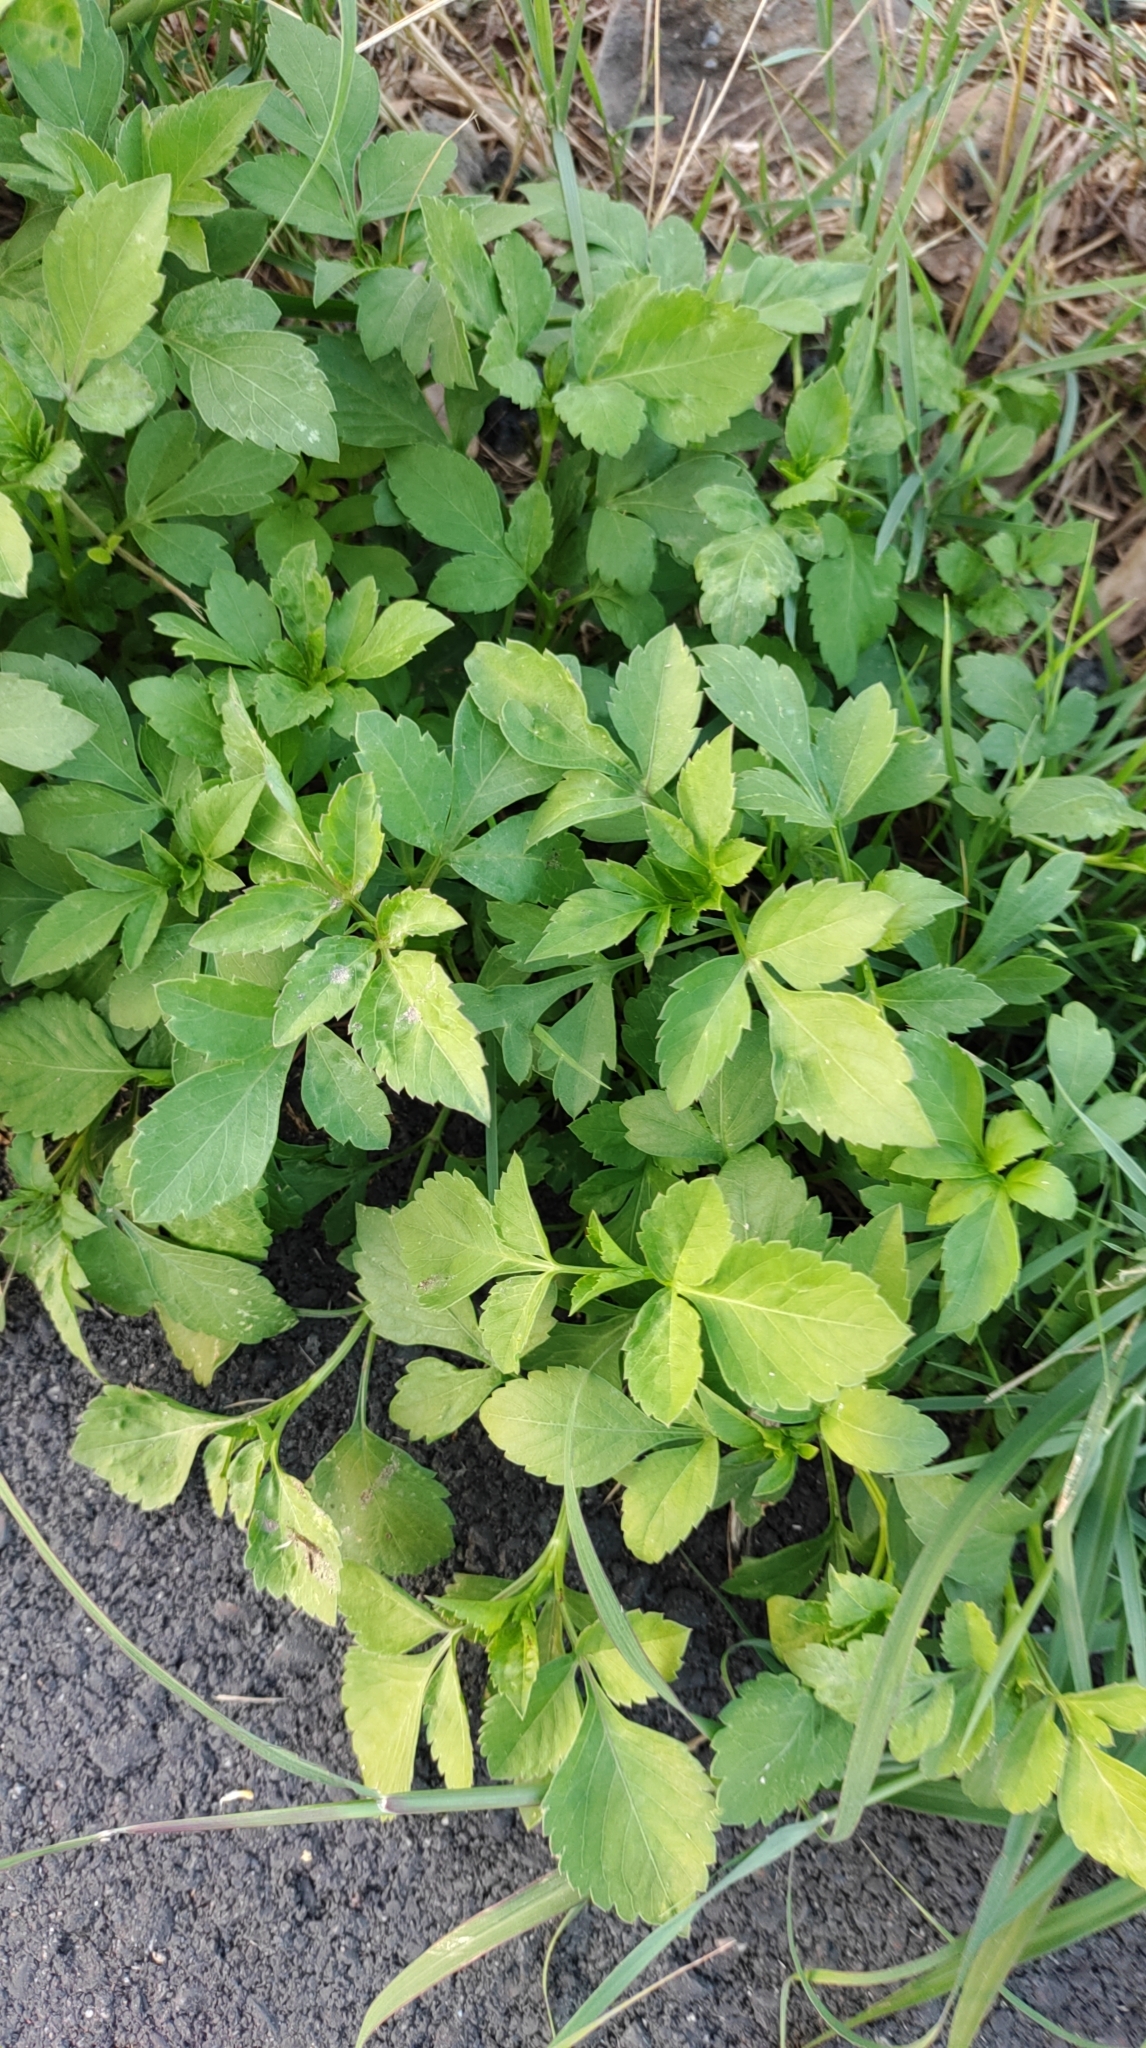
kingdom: Plantae
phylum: Tracheophyta
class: Magnoliopsida
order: Asterales
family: Asteraceae
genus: Bidens
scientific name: Bidens alba
